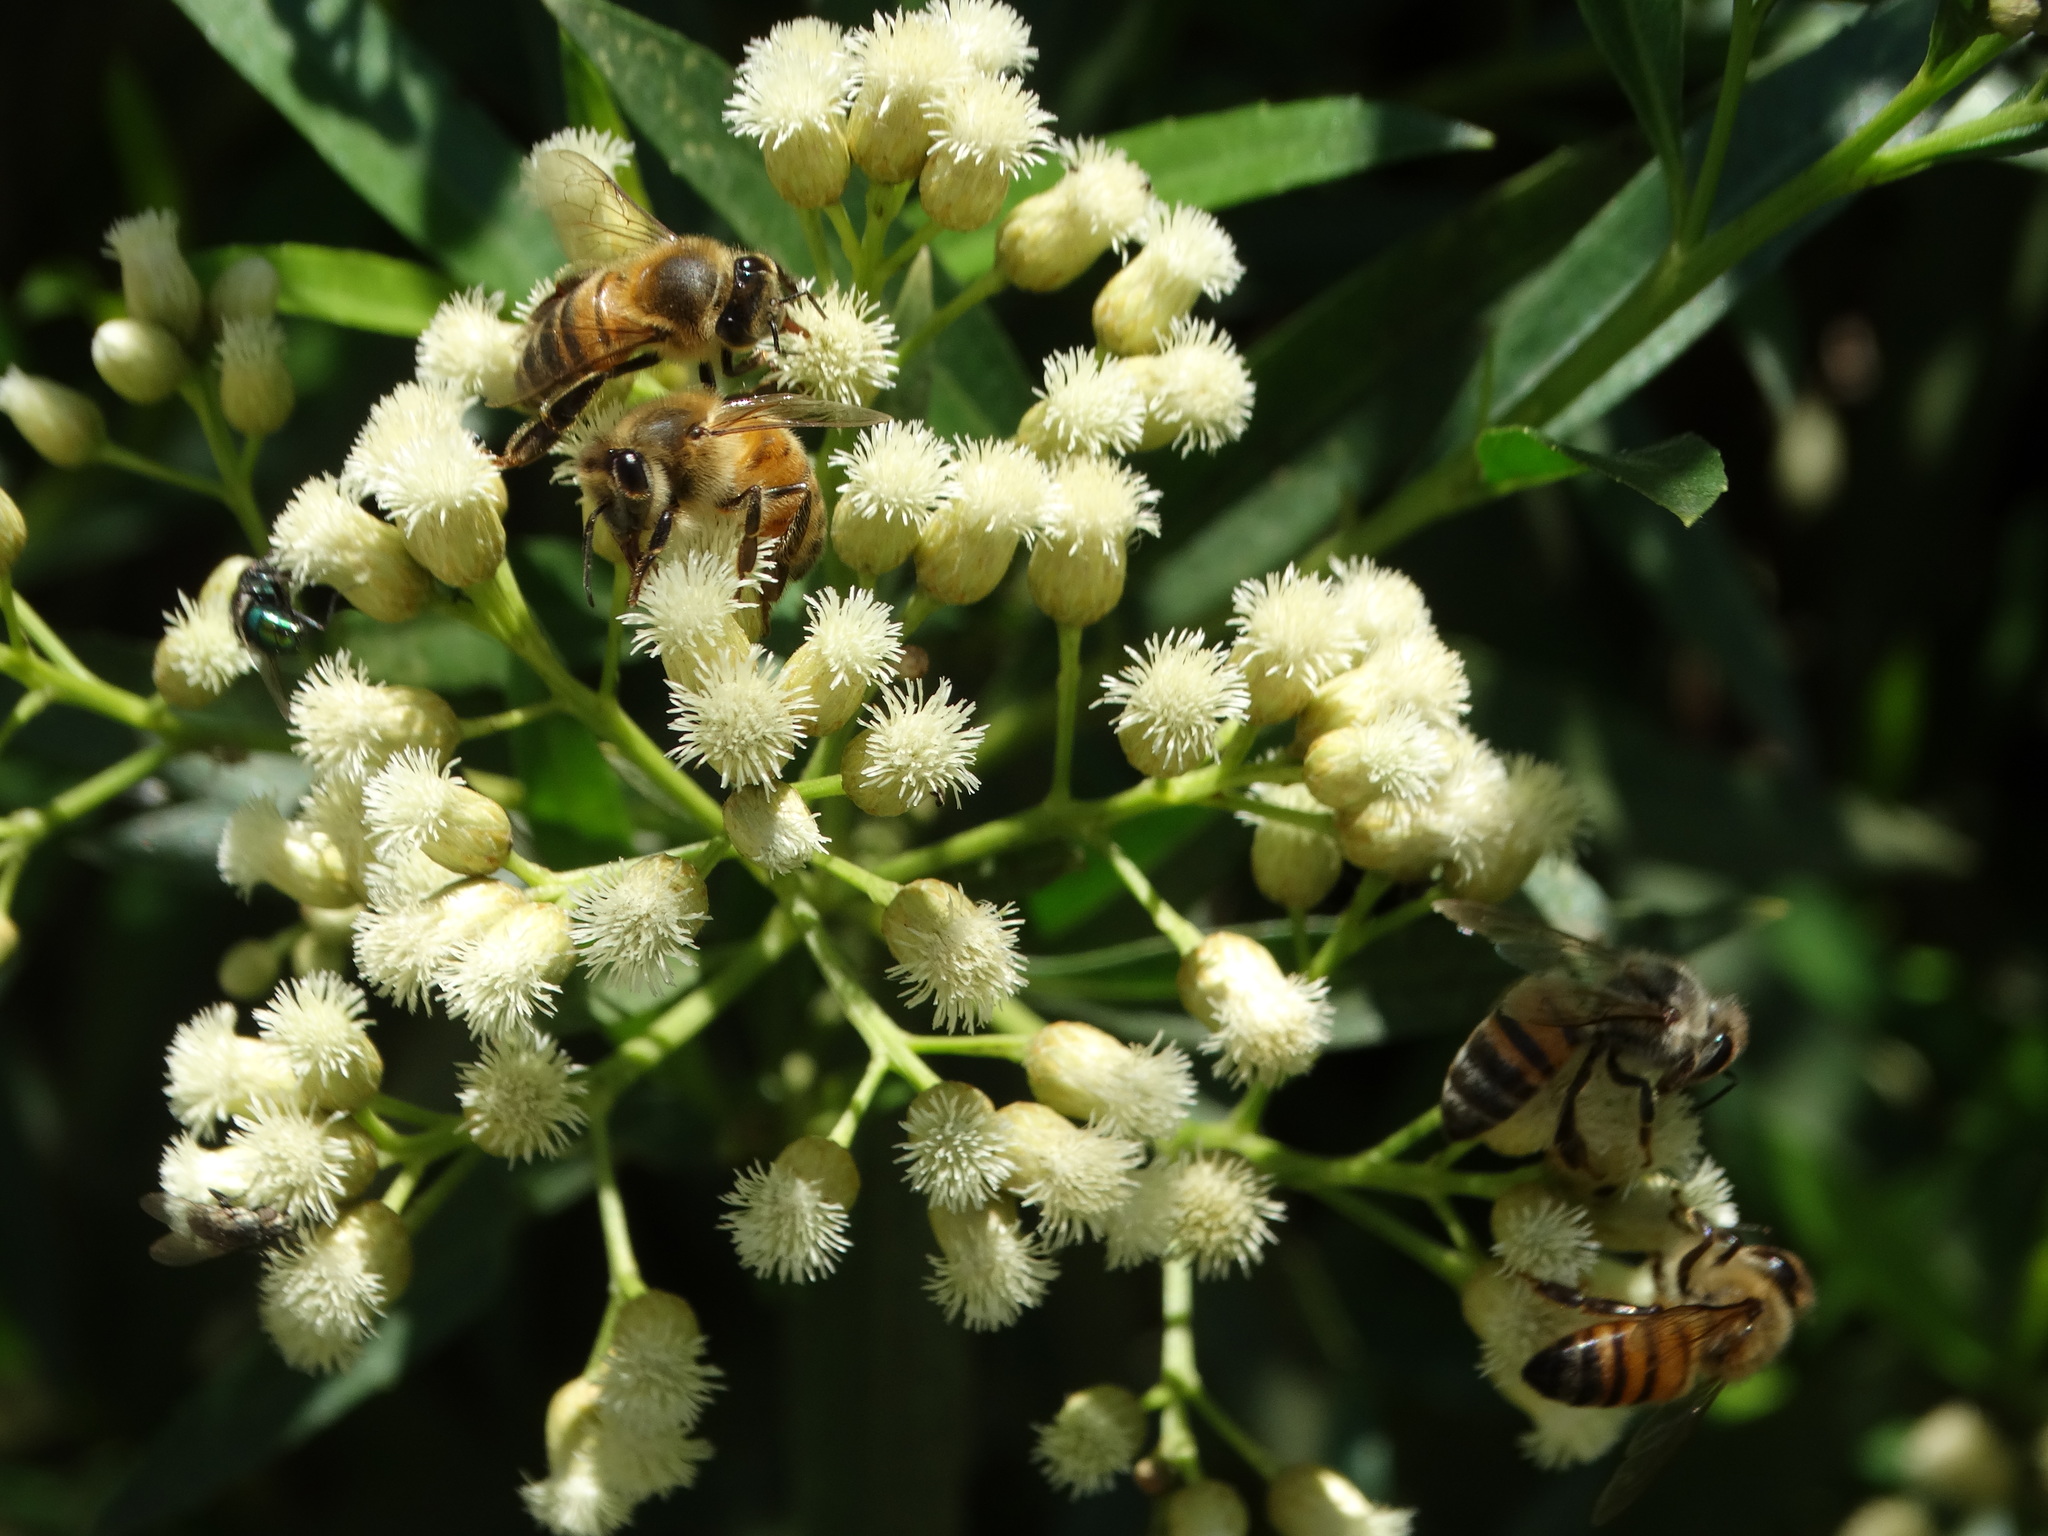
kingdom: Animalia
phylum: Arthropoda
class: Insecta
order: Hymenoptera
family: Apidae
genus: Apis
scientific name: Apis mellifera
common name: Honey bee
